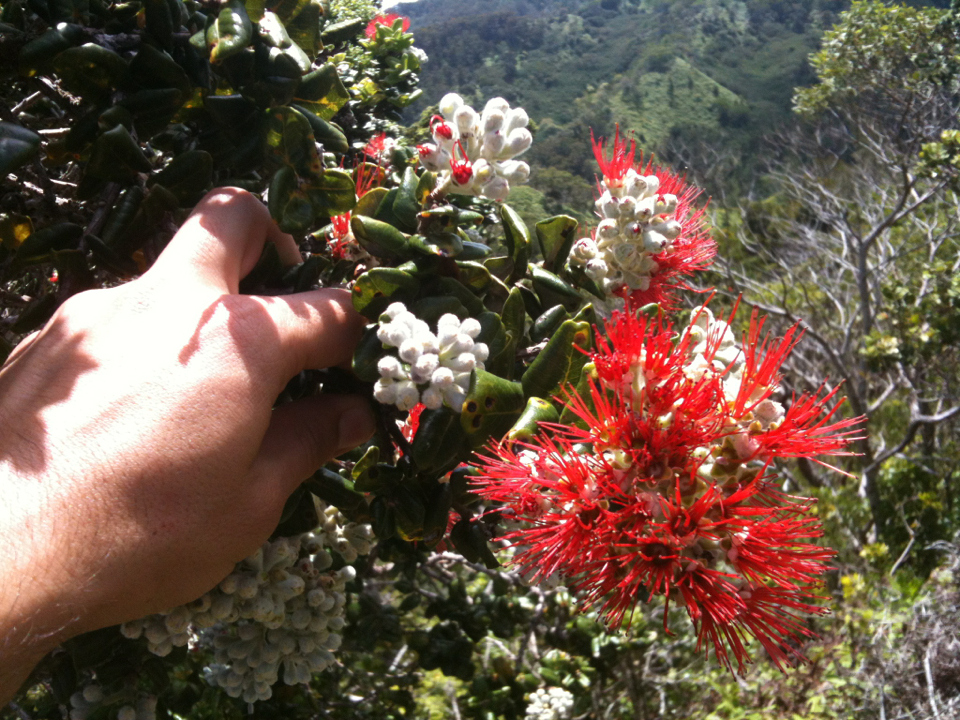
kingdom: Plantae
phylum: Tracheophyta
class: Magnoliopsida
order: Myrtales
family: Myrtaceae
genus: Metrosideros
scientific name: Metrosideros polymorpha
